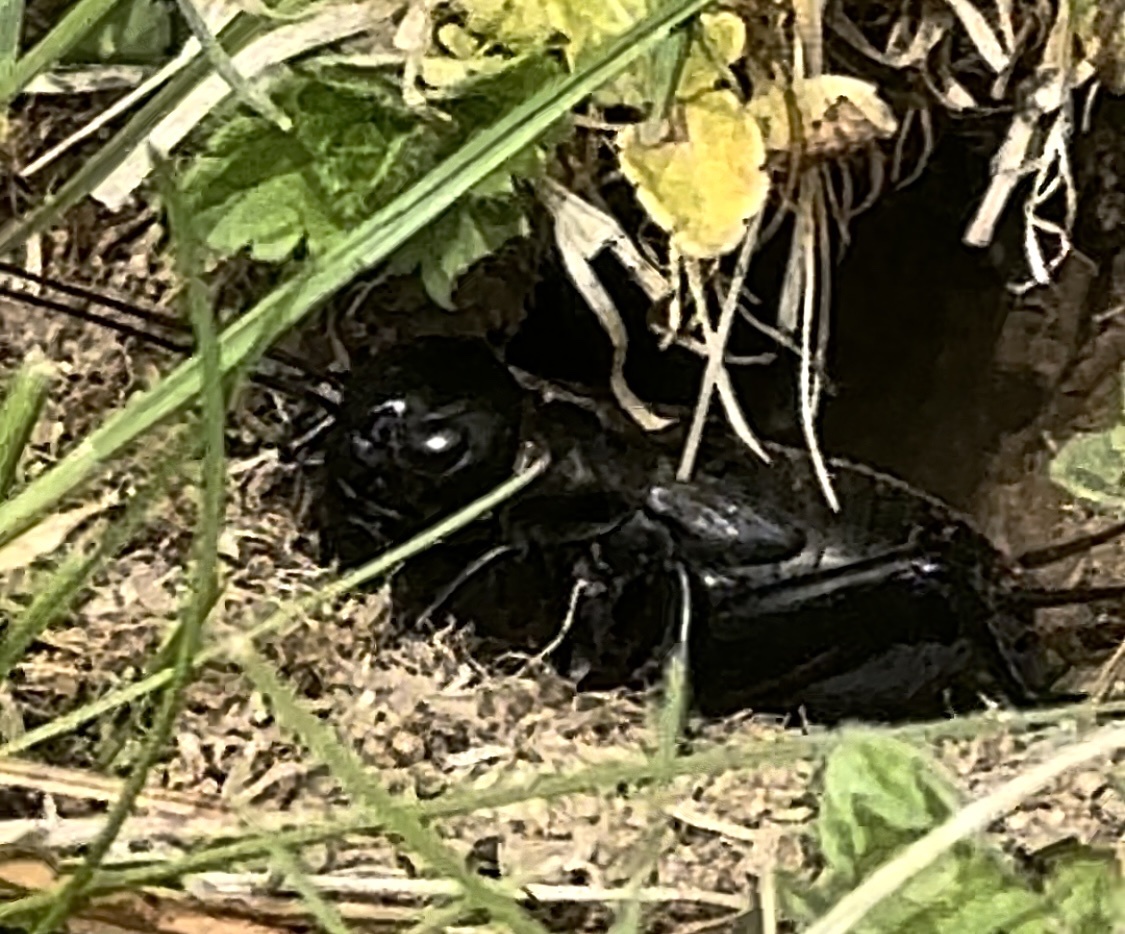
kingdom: Animalia
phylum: Arthropoda
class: Insecta
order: Orthoptera
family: Gryllidae
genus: Gryllus
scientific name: Gryllus campestris
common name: Field cricket
